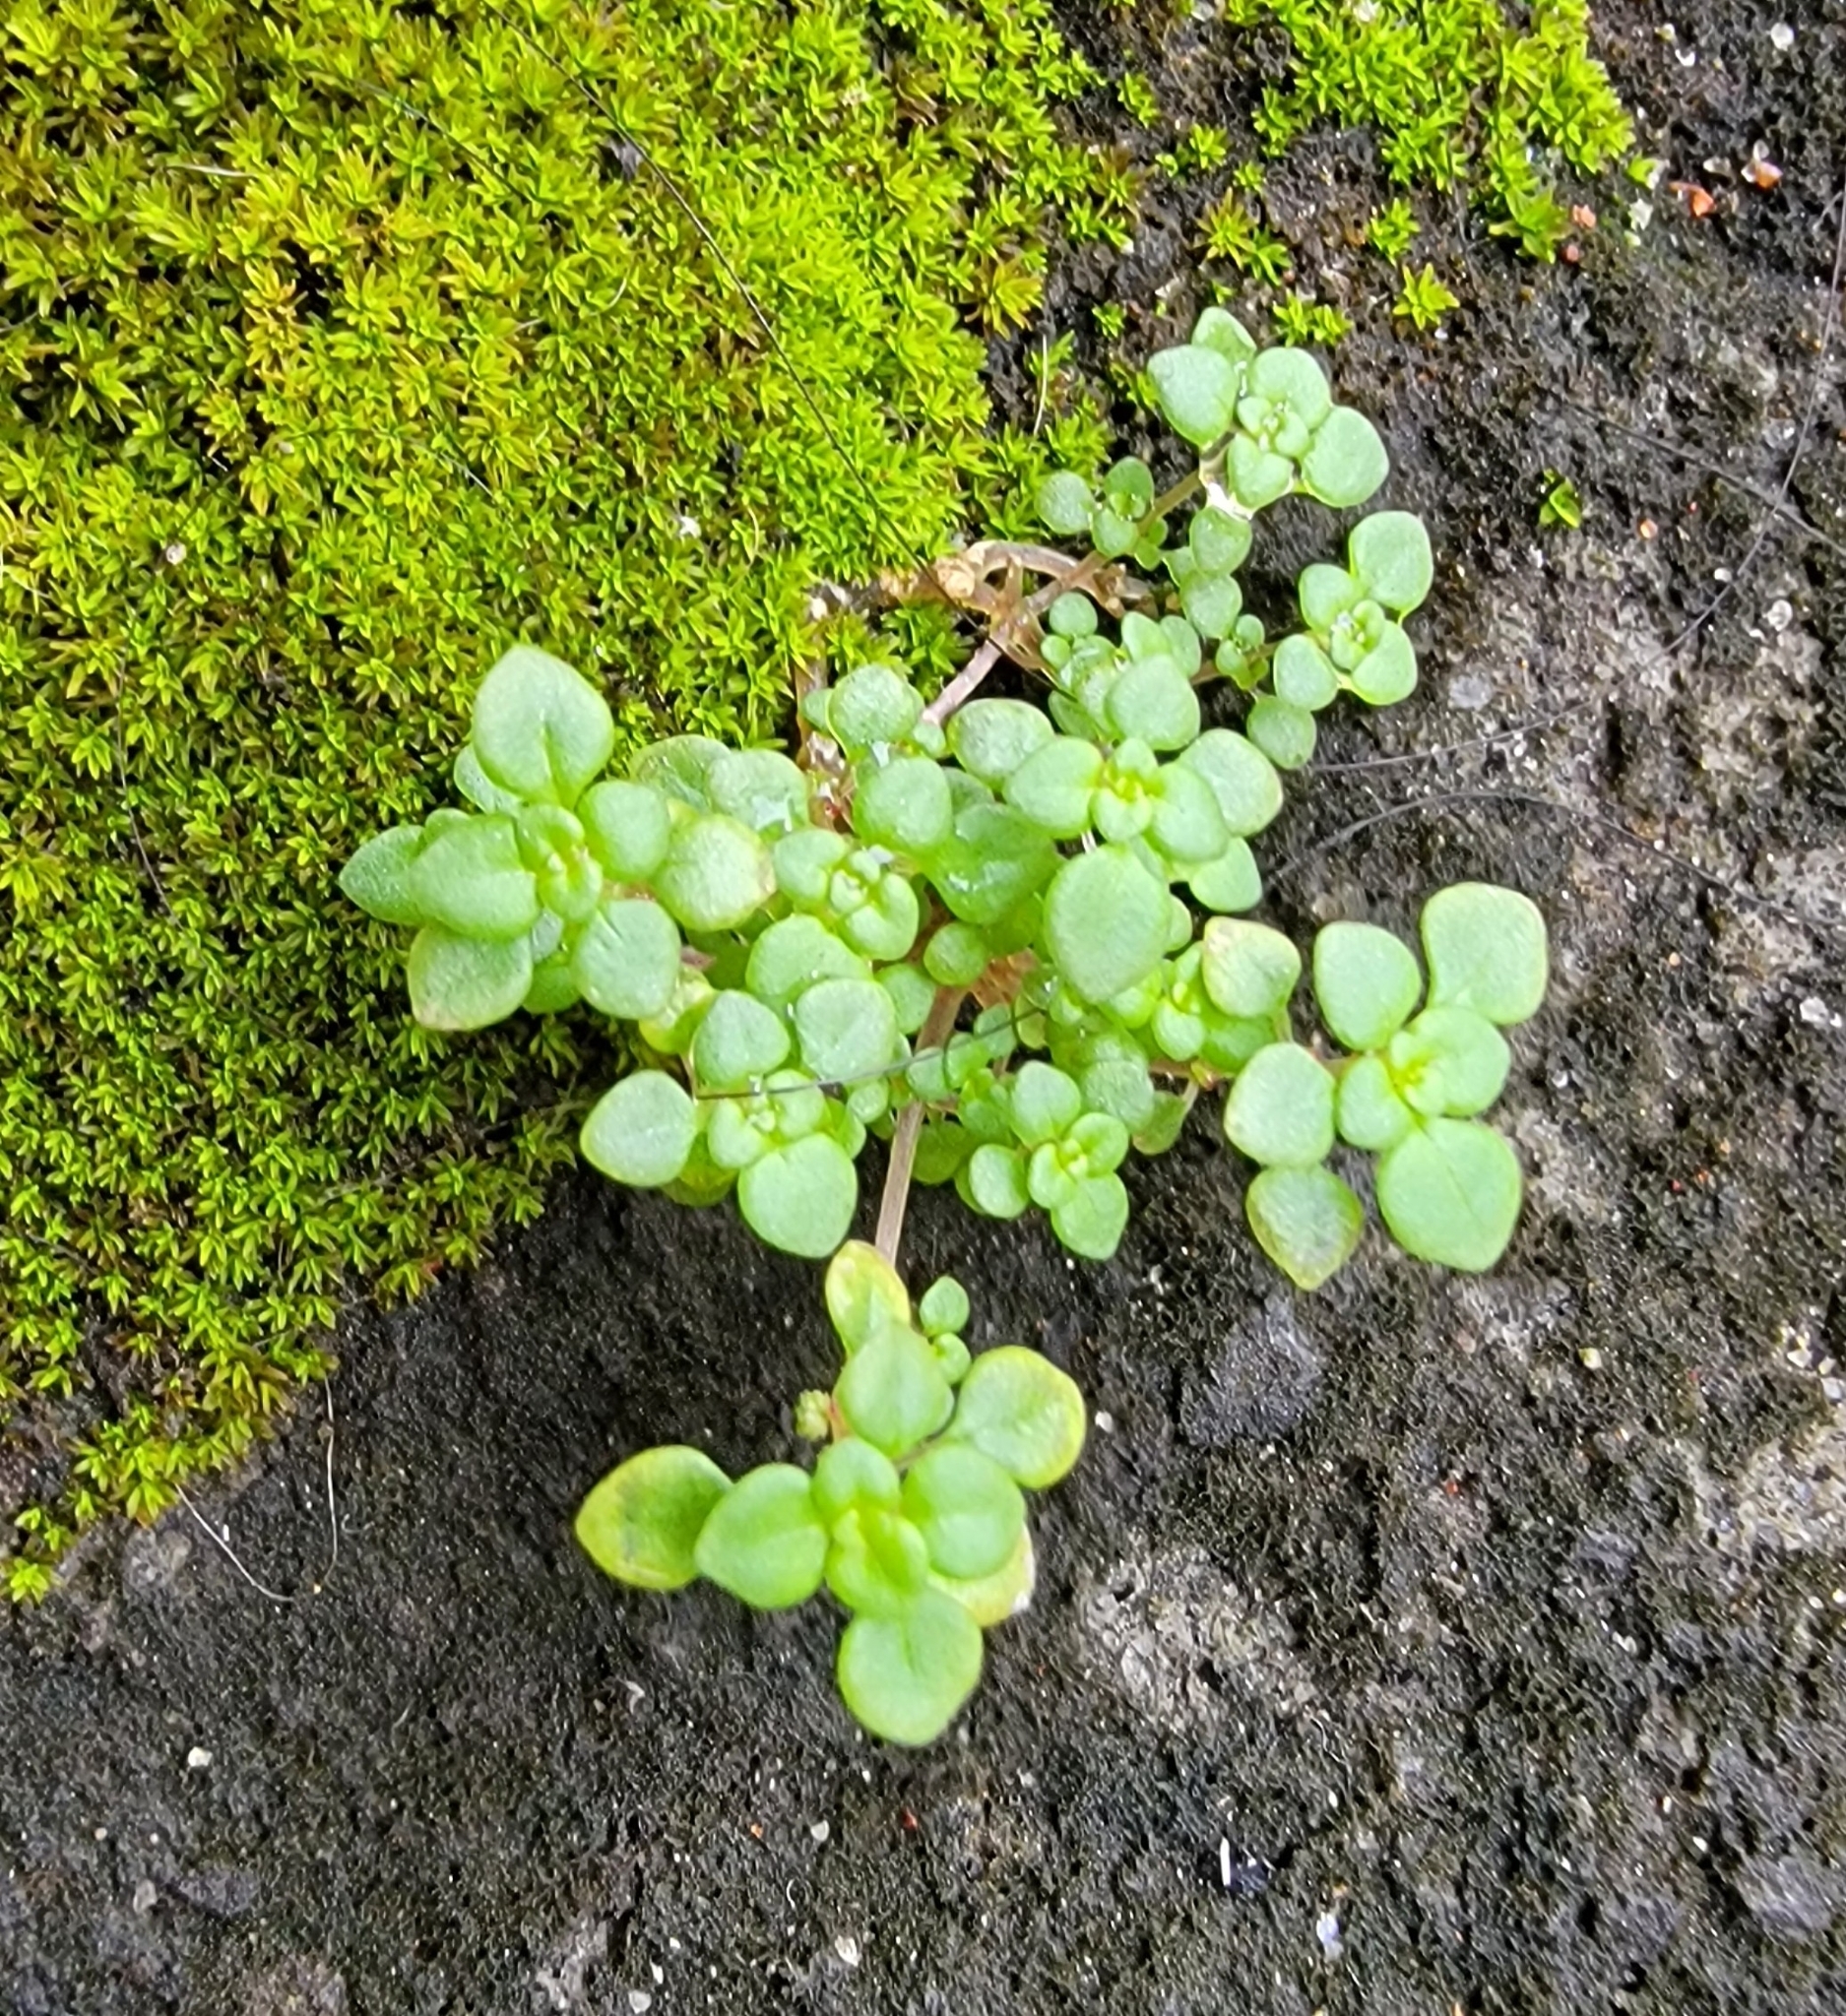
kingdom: Plantae
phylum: Tracheophyta
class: Magnoliopsida
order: Rosales
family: Urticaceae
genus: Pilea
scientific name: Pilea microphylla
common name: Artillery-plant
